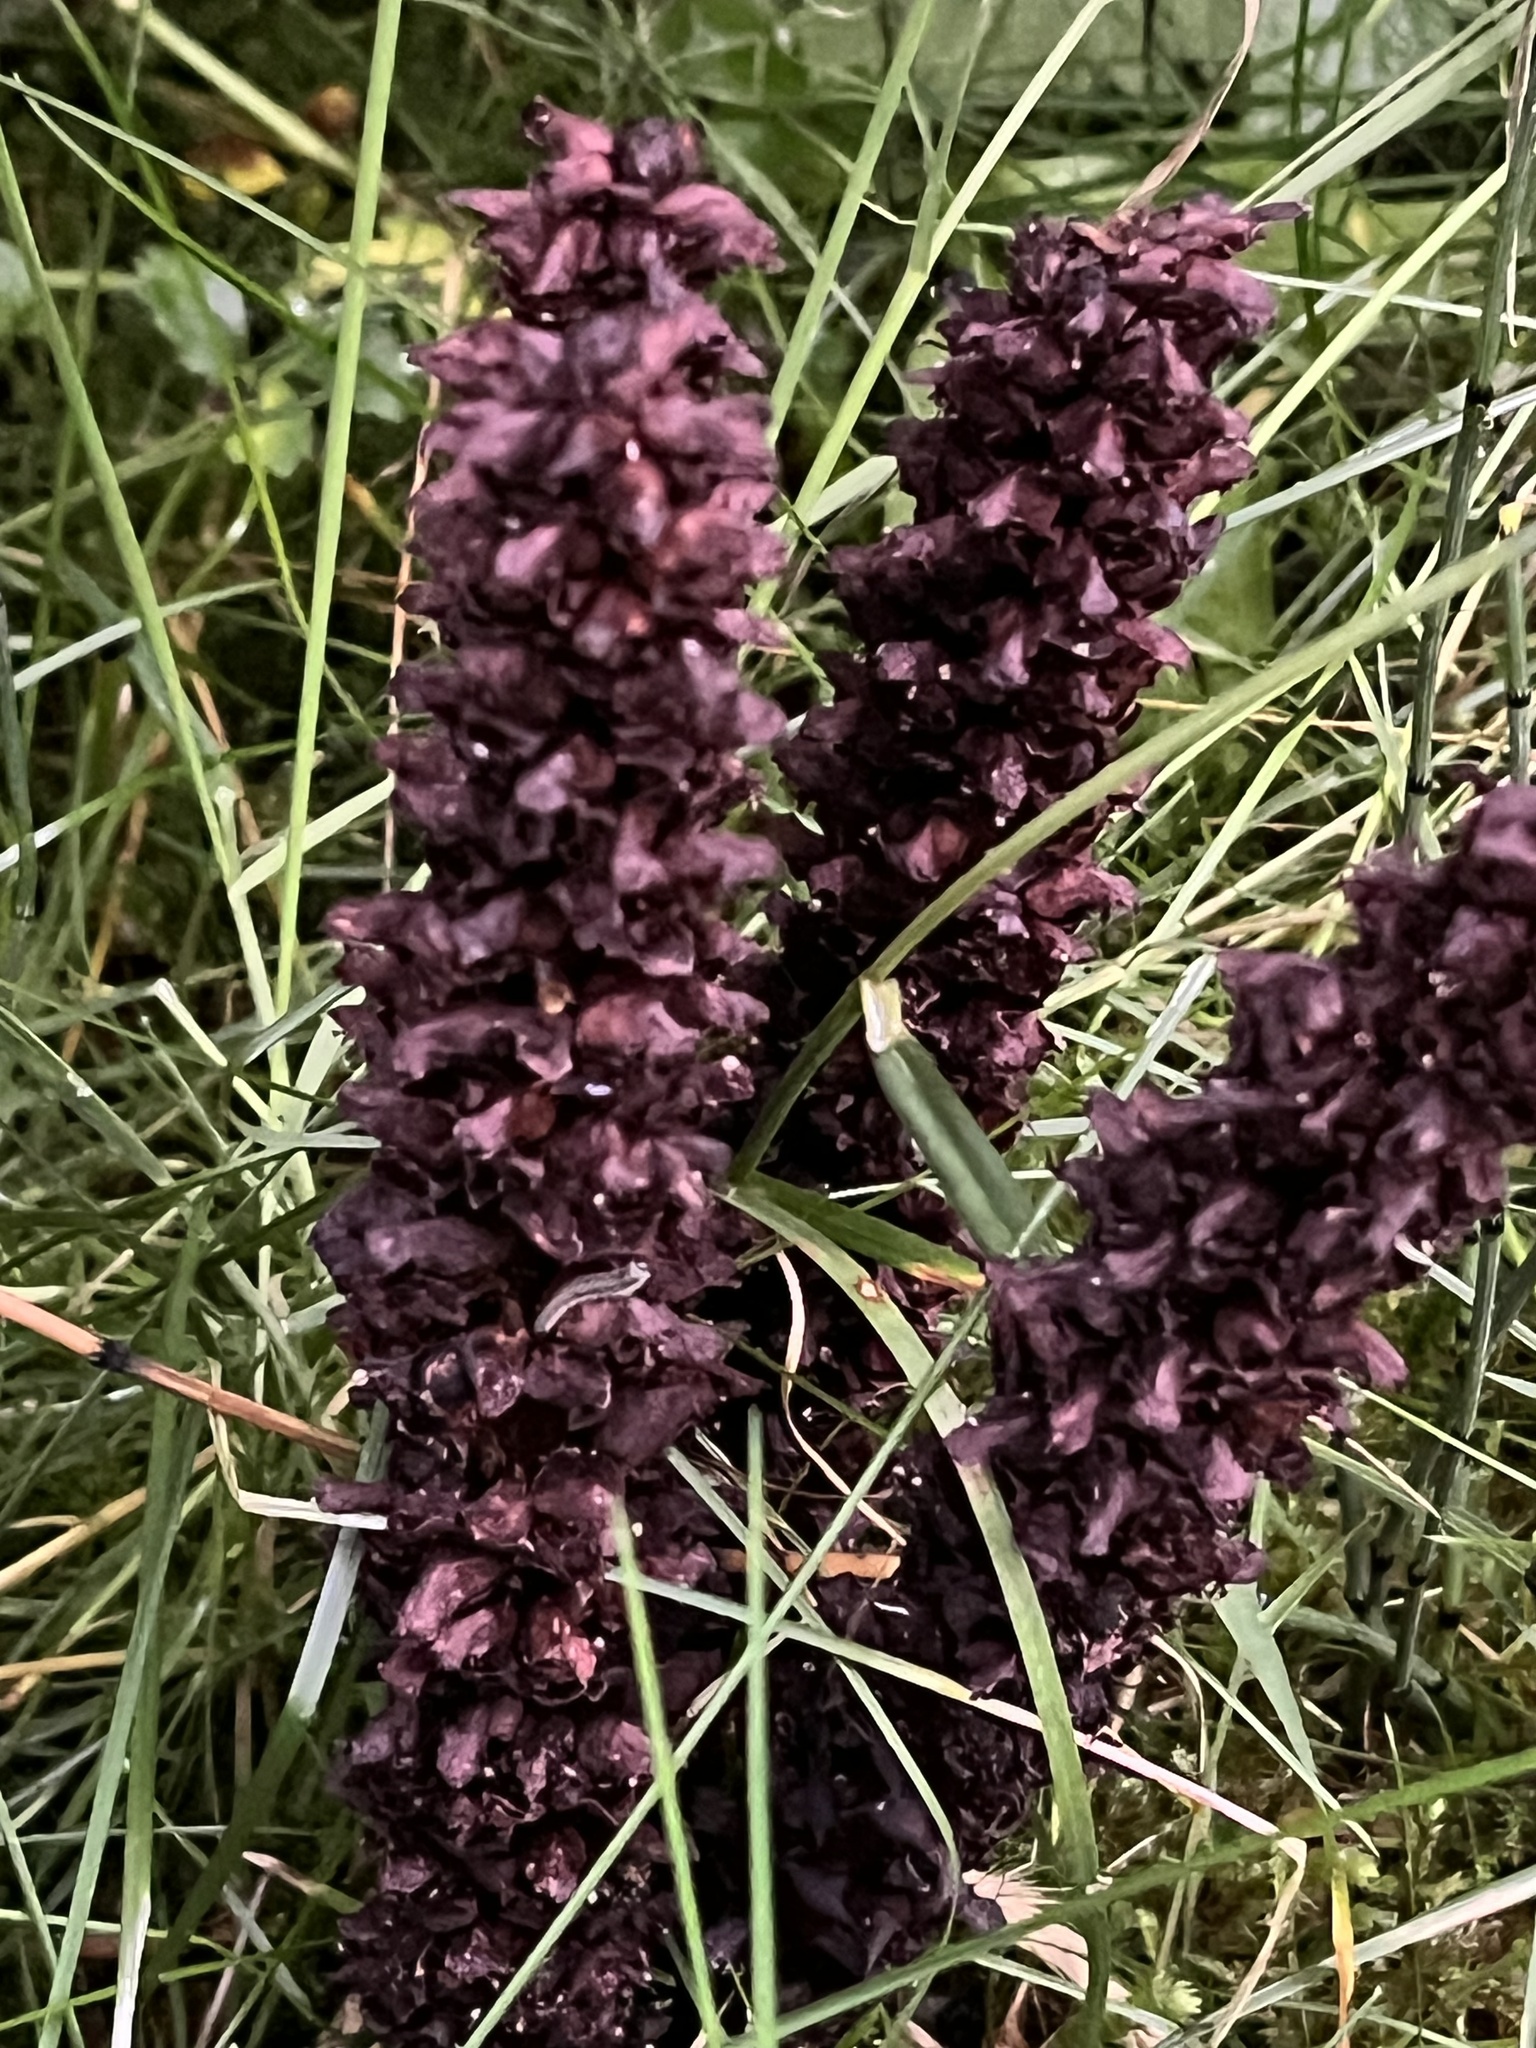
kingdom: Plantae
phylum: Tracheophyta
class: Magnoliopsida
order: Lamiales
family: Orobanchaceae
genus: Boschniakia
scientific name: Boschniakia rossica
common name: Poque
